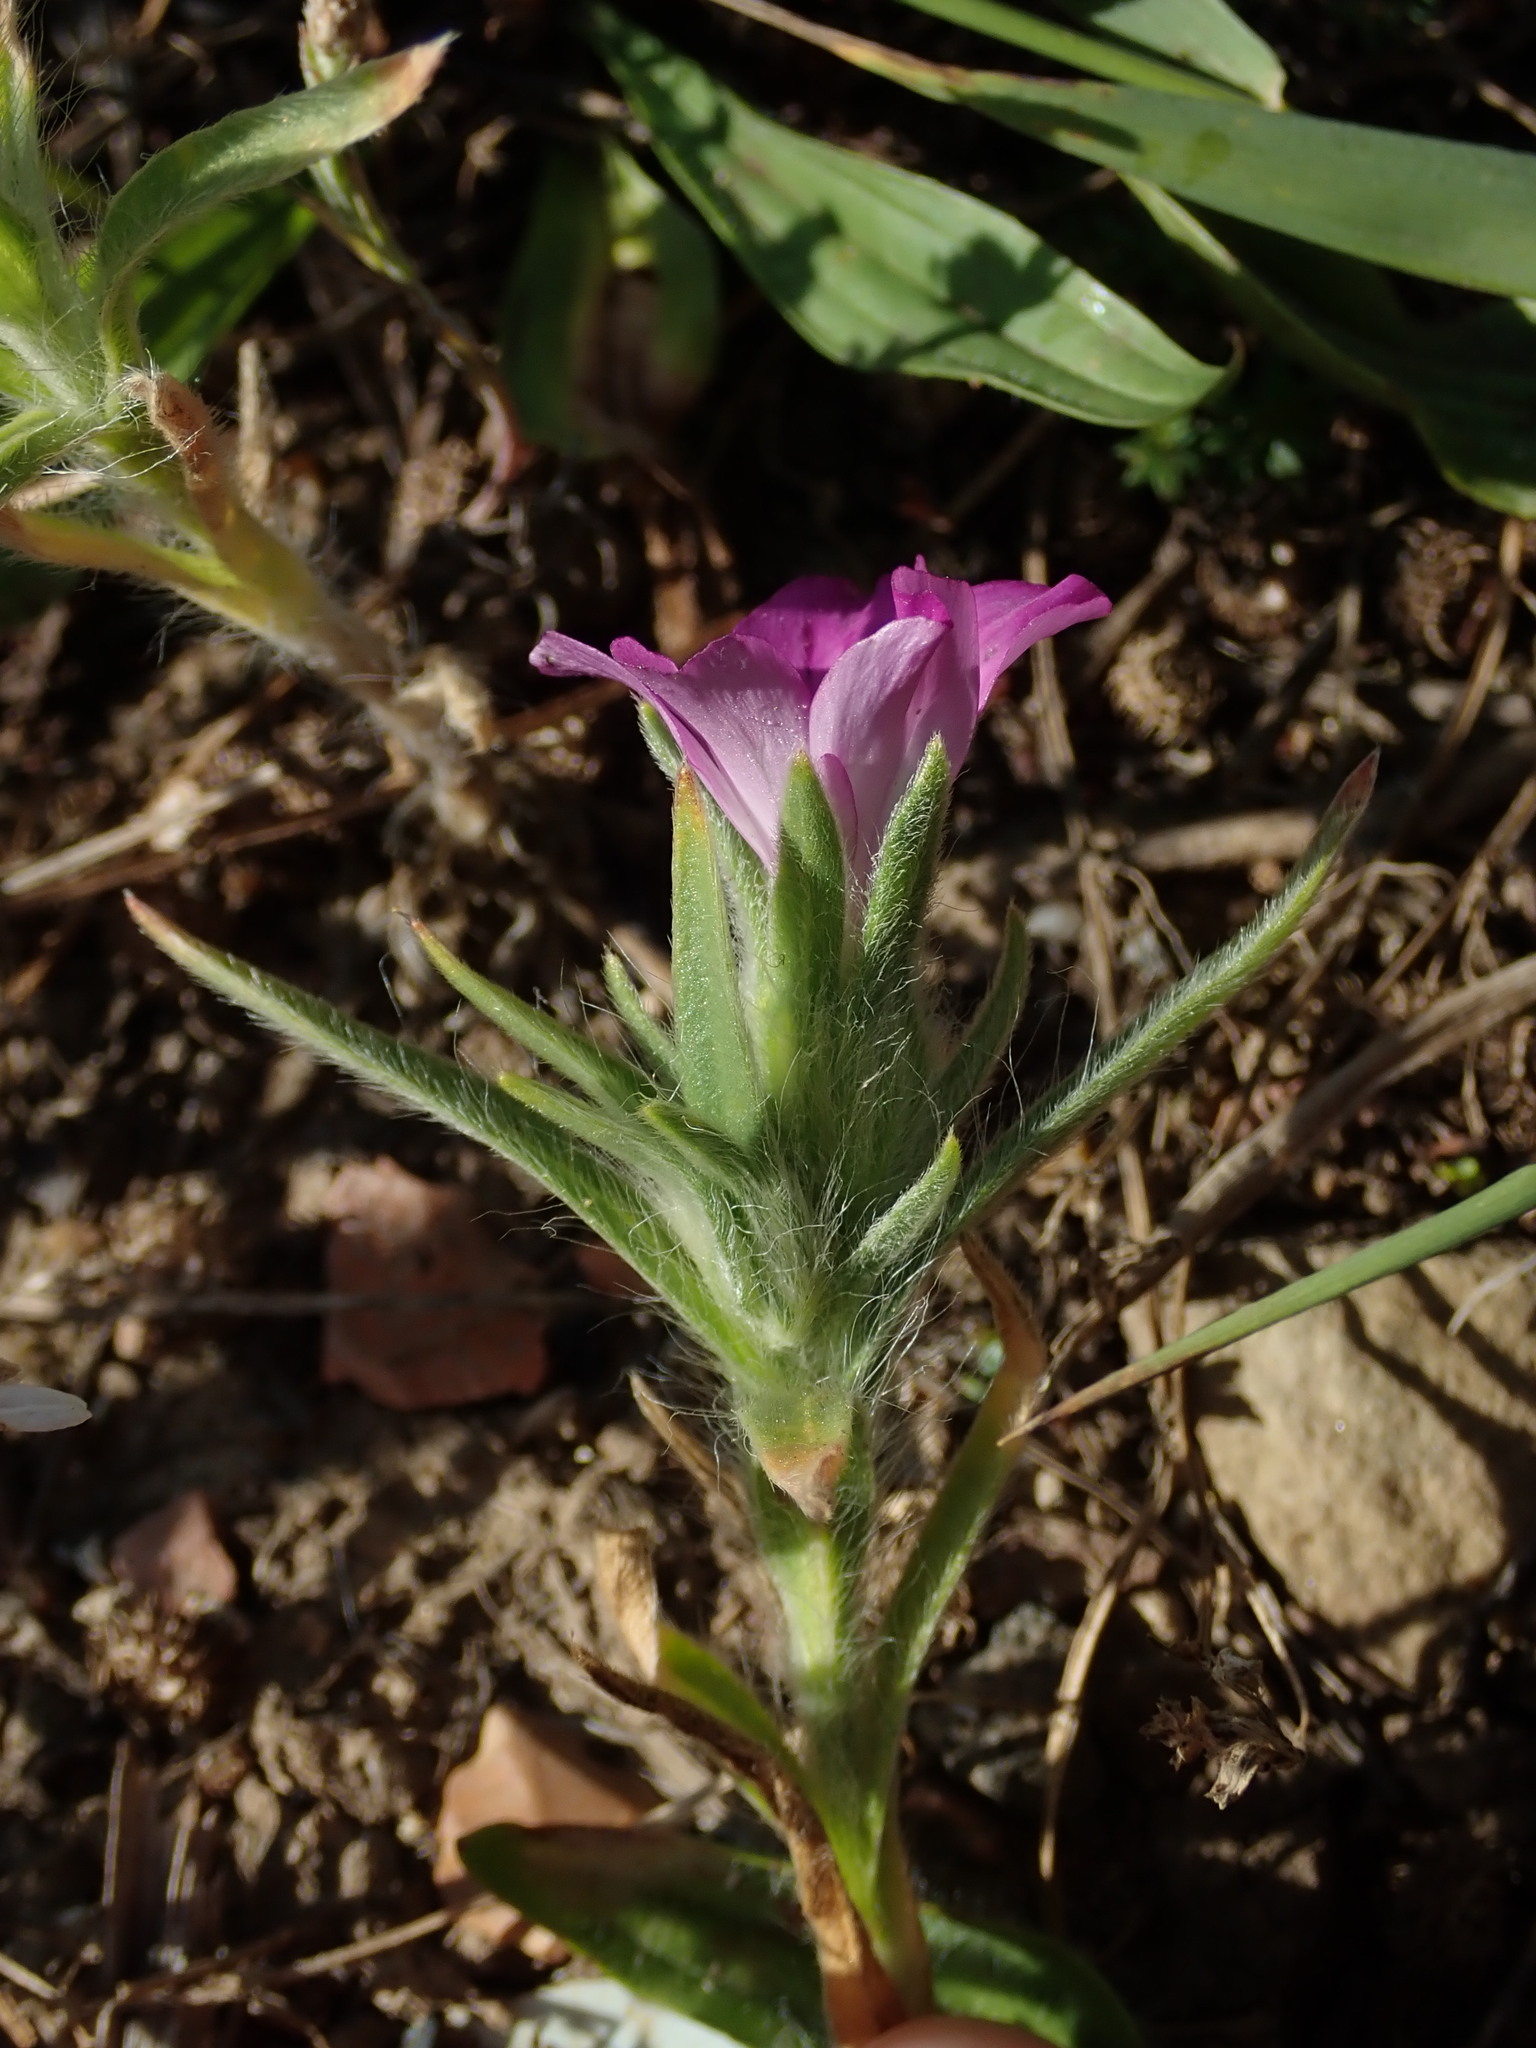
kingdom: Plantae
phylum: Tracheophyta
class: Magnoliopsida
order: Caryophyllales
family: Caryophyllaceae
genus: Agrostemma
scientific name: Agrostemma githago
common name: Common corncockle
